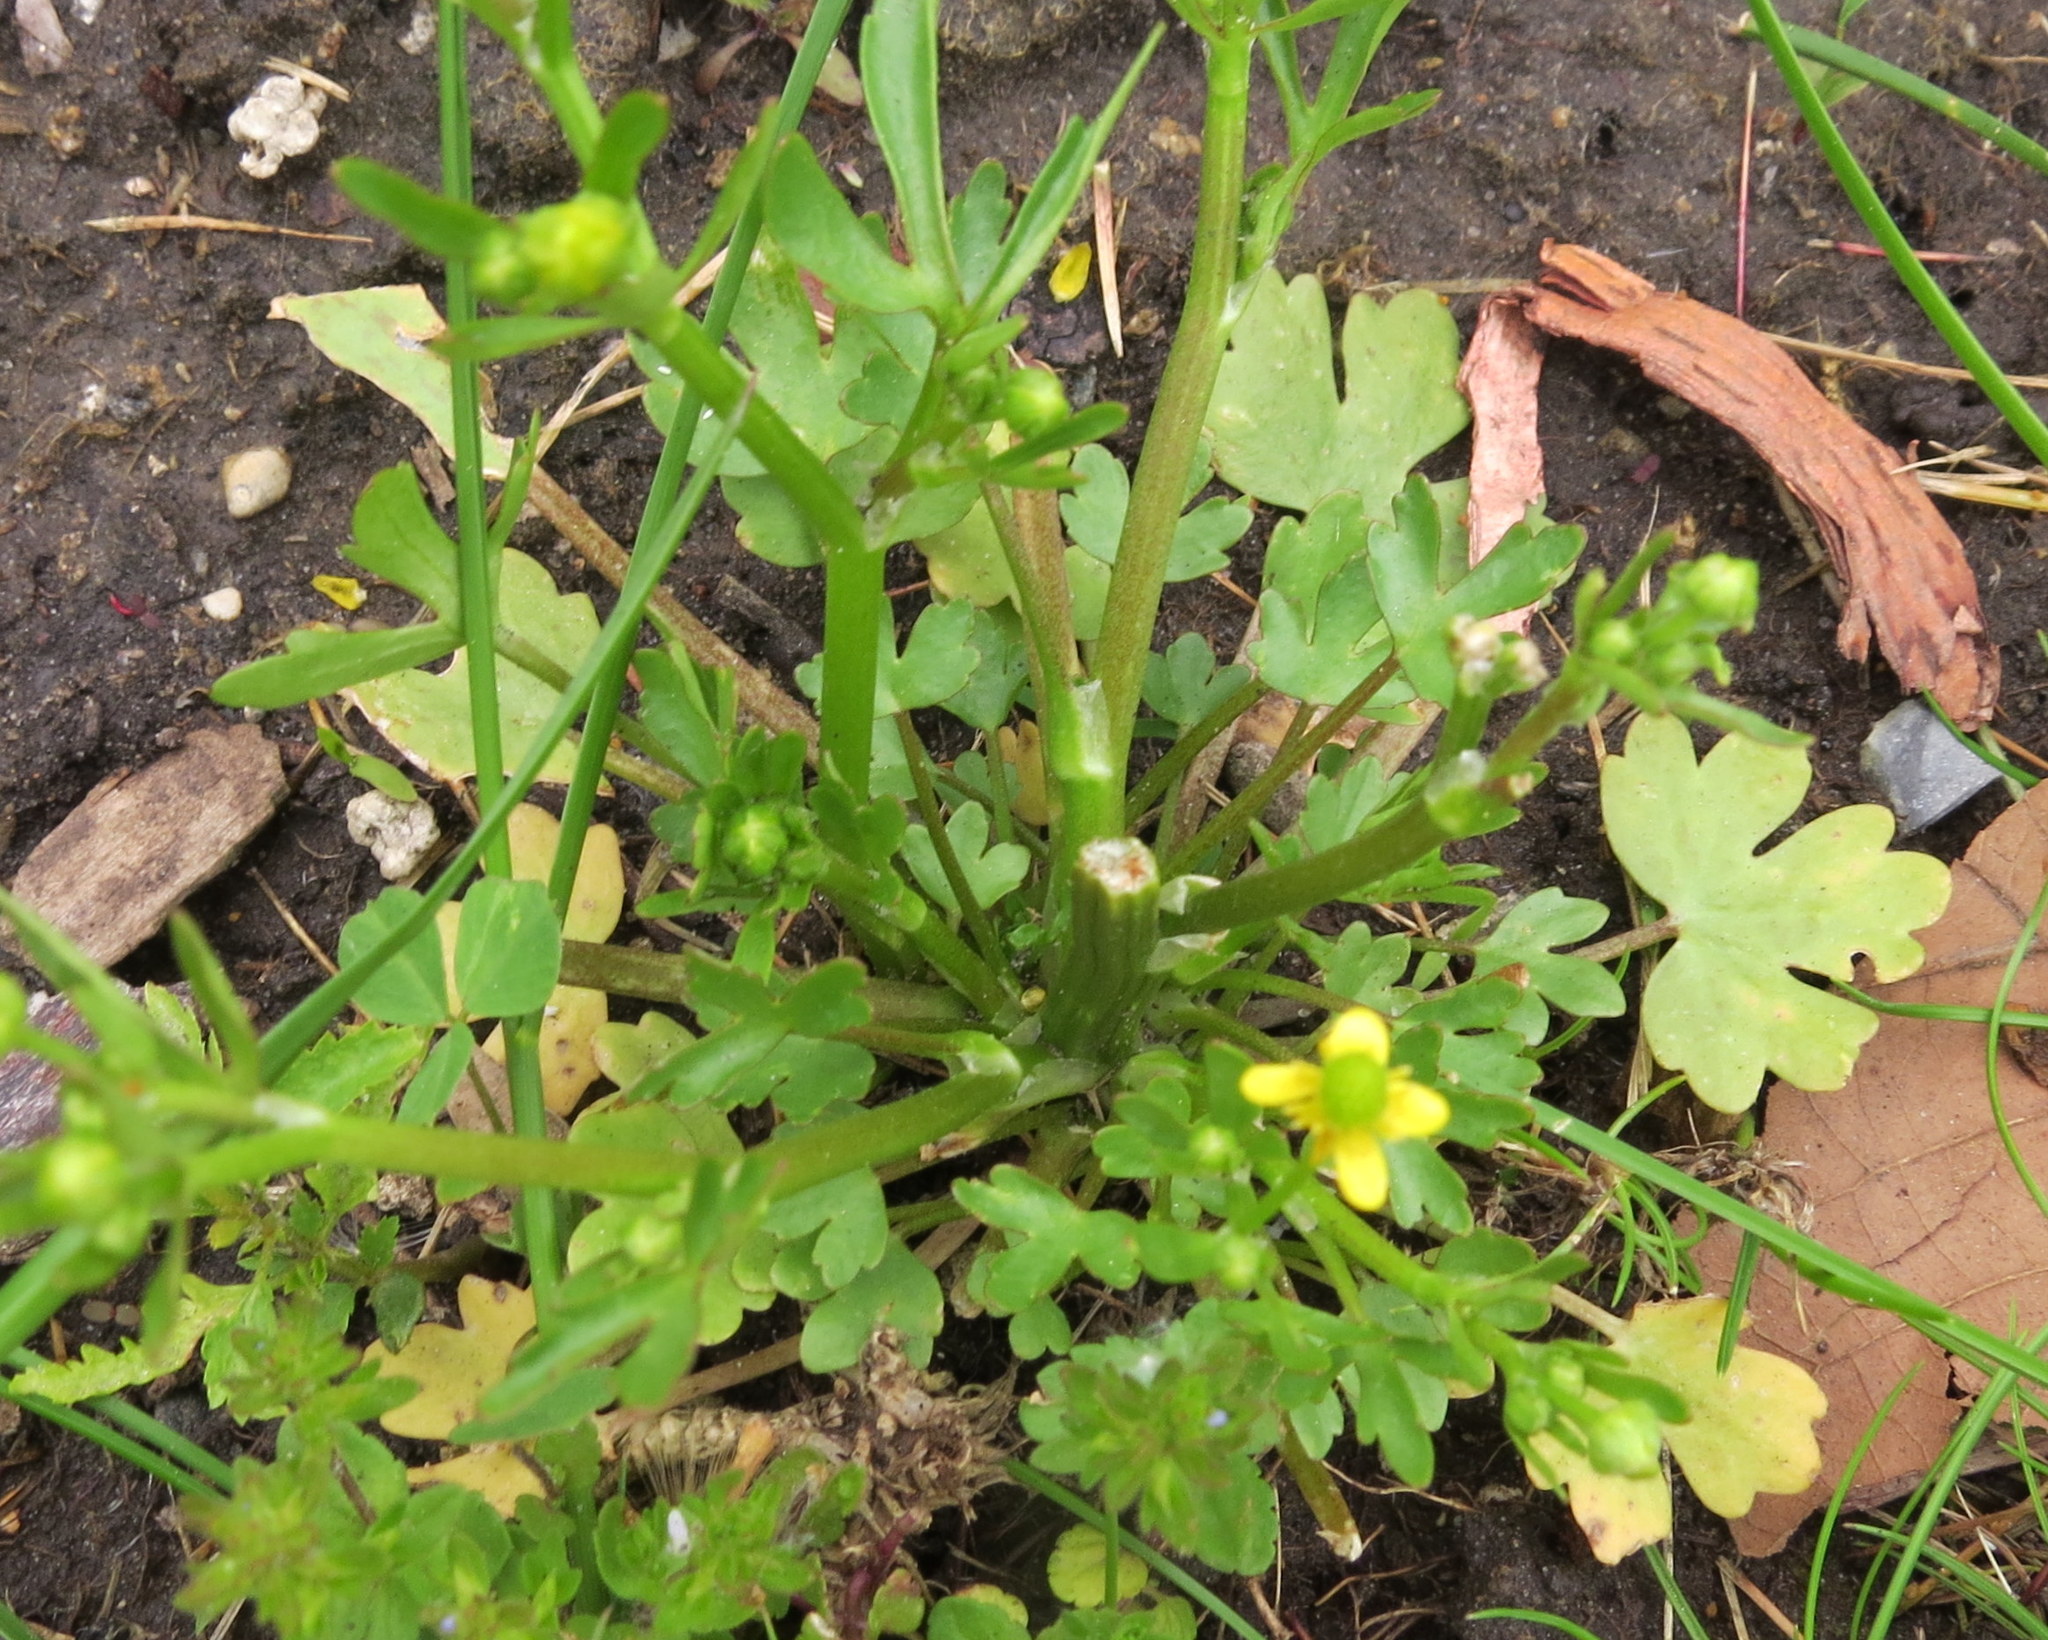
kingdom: Plantae
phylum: Tracheophyta
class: Magnoliopsida
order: Ranunculales
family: Ranunculaceae
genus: Ranunculus
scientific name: Ranunculus sceleratus
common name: Celery-leaved buttercup
